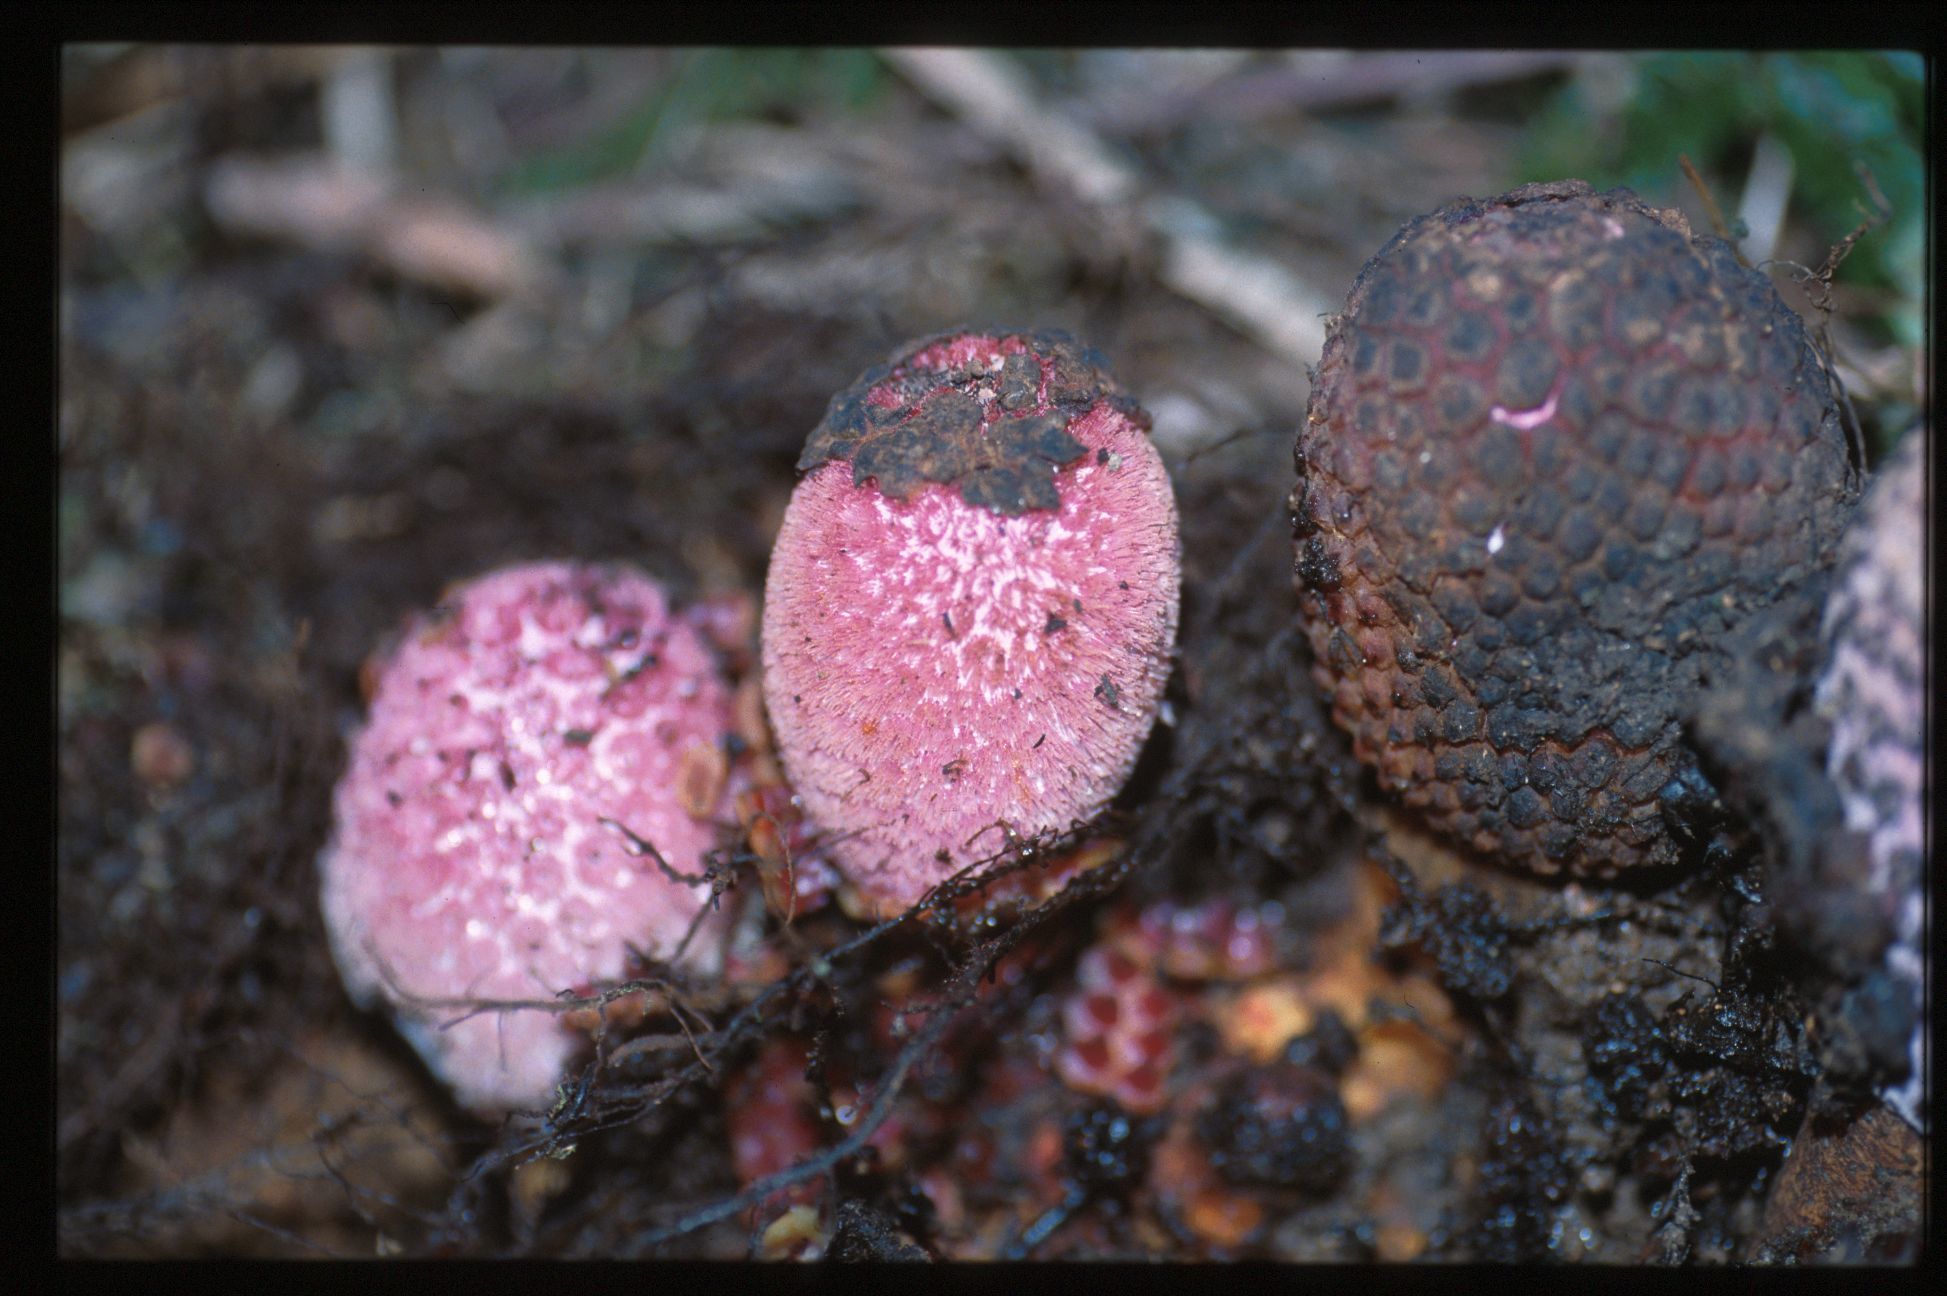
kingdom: Plantae
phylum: Tracheophyta
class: Magnoliopsida
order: Santalales
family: Balanophoraceae
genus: Corynaea
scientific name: Corynaea crassa
